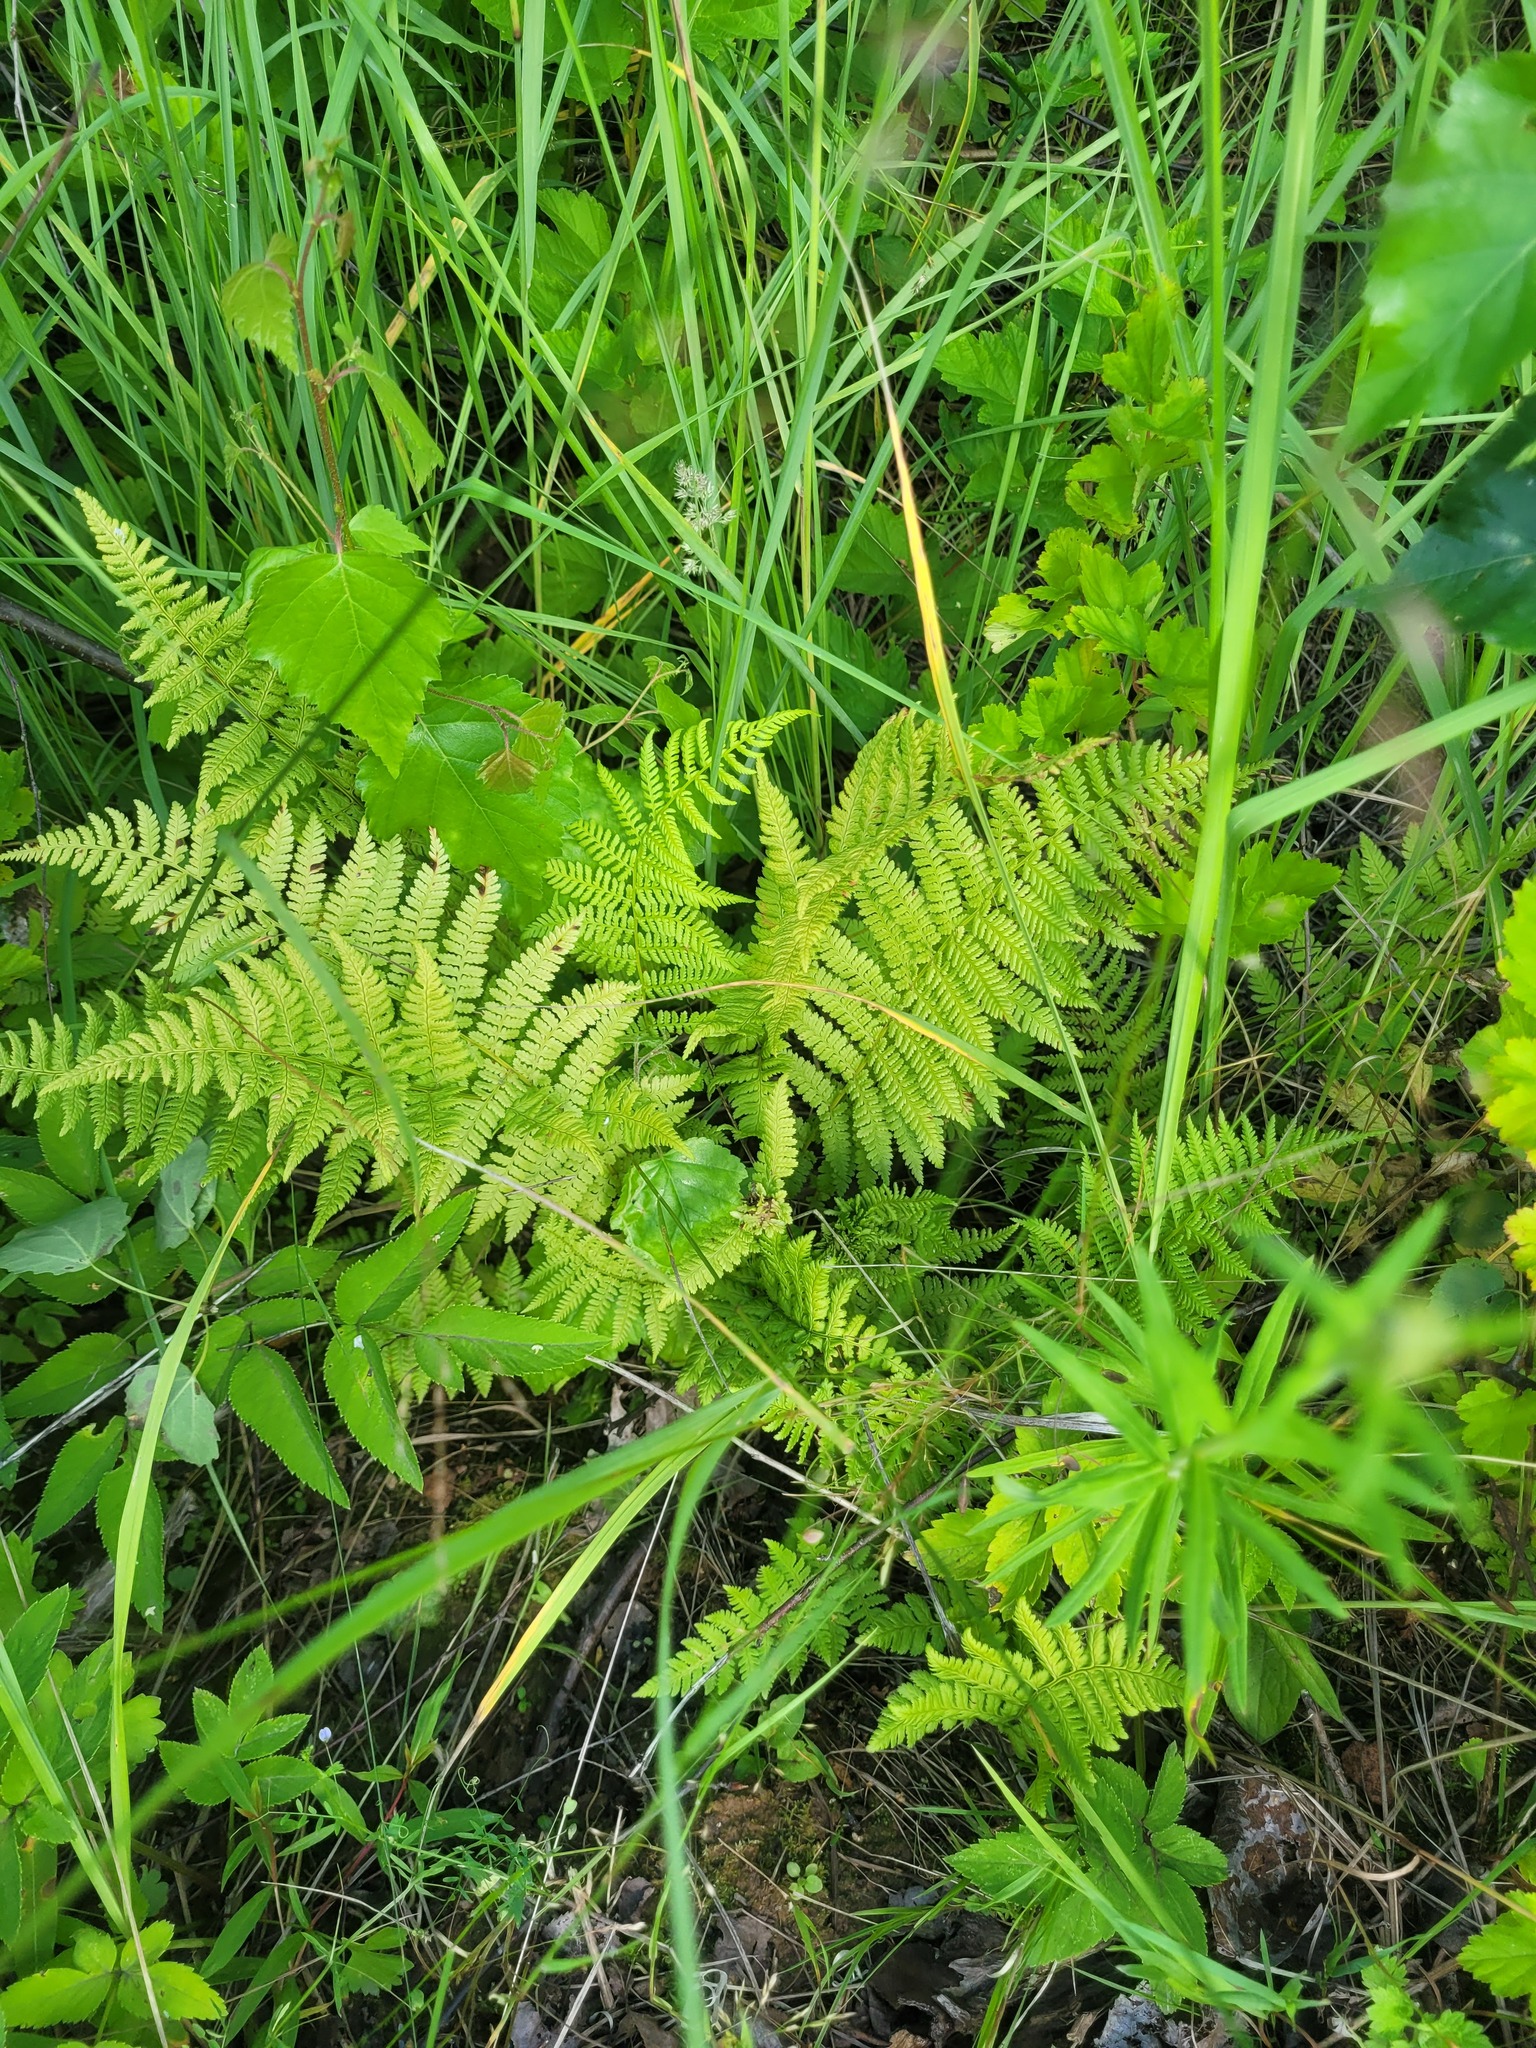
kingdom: Plantae
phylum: Tracheophyta
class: Polypodiopsida
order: Polypodiales
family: Athyriaceae
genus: Athyrium
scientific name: Athyrium filix-femina
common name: Lady fern
